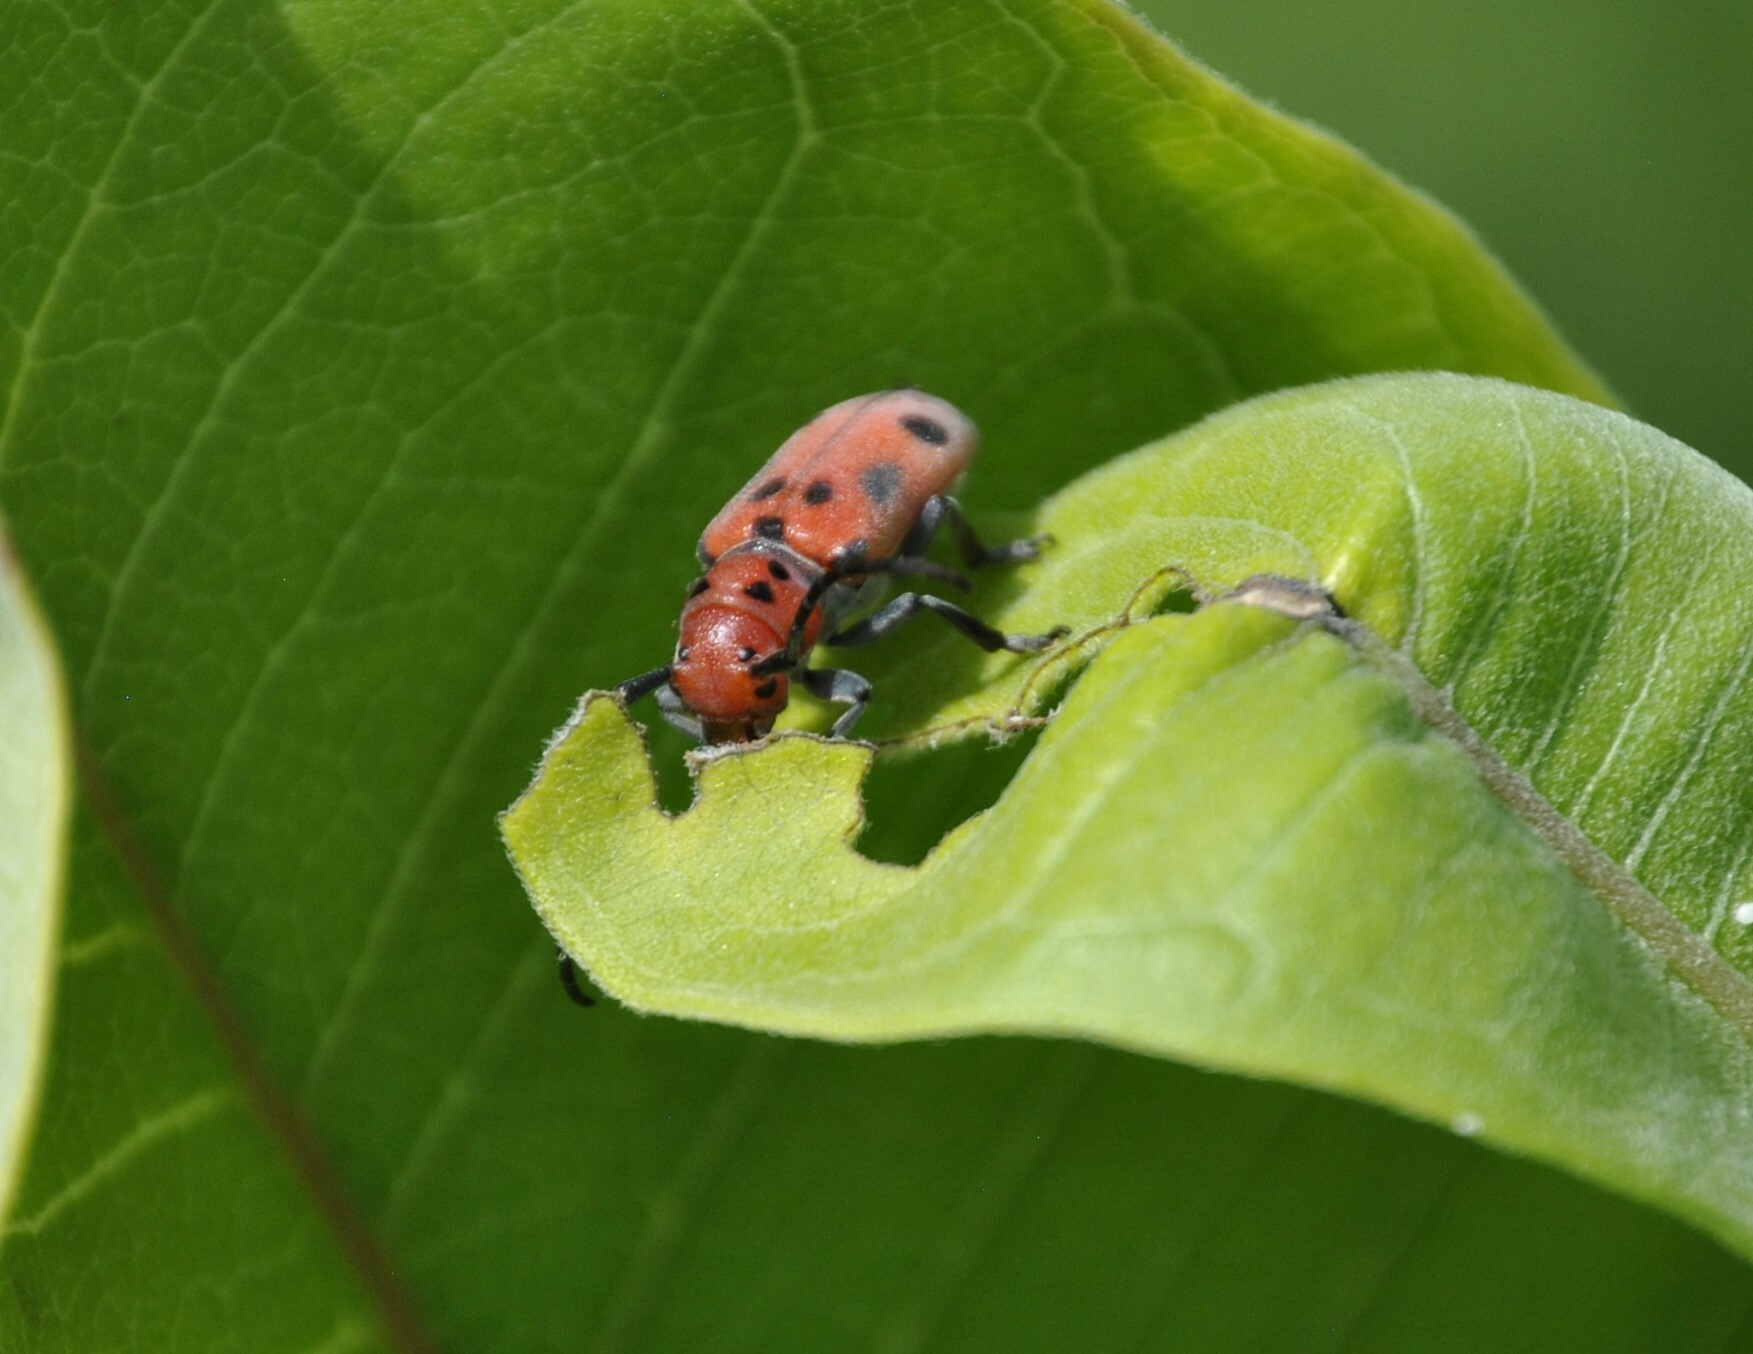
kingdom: Animalia
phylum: Arthropoda
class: Insecta
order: Coleoptera
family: Cerambycidae
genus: Tetraopes
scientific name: Tetraopes tetrophthalmus
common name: Red milkweed beetle
